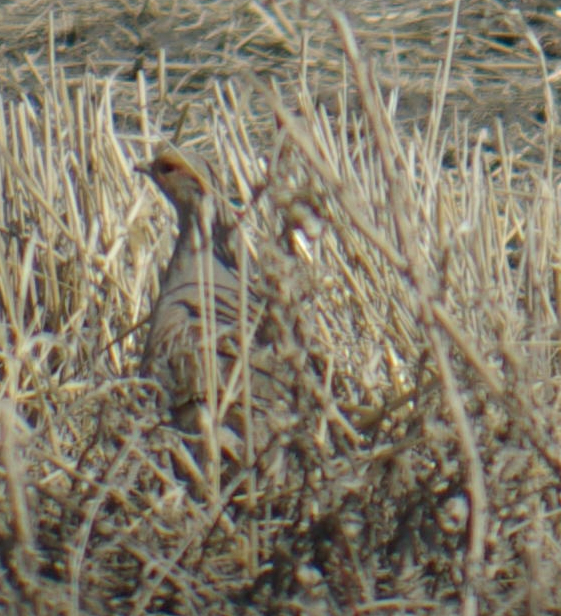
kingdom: Animalia
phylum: Chordata
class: Aves
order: Galliformes
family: Phasianidae
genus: Perdix
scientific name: Perdix perdix
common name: Grey partridge
